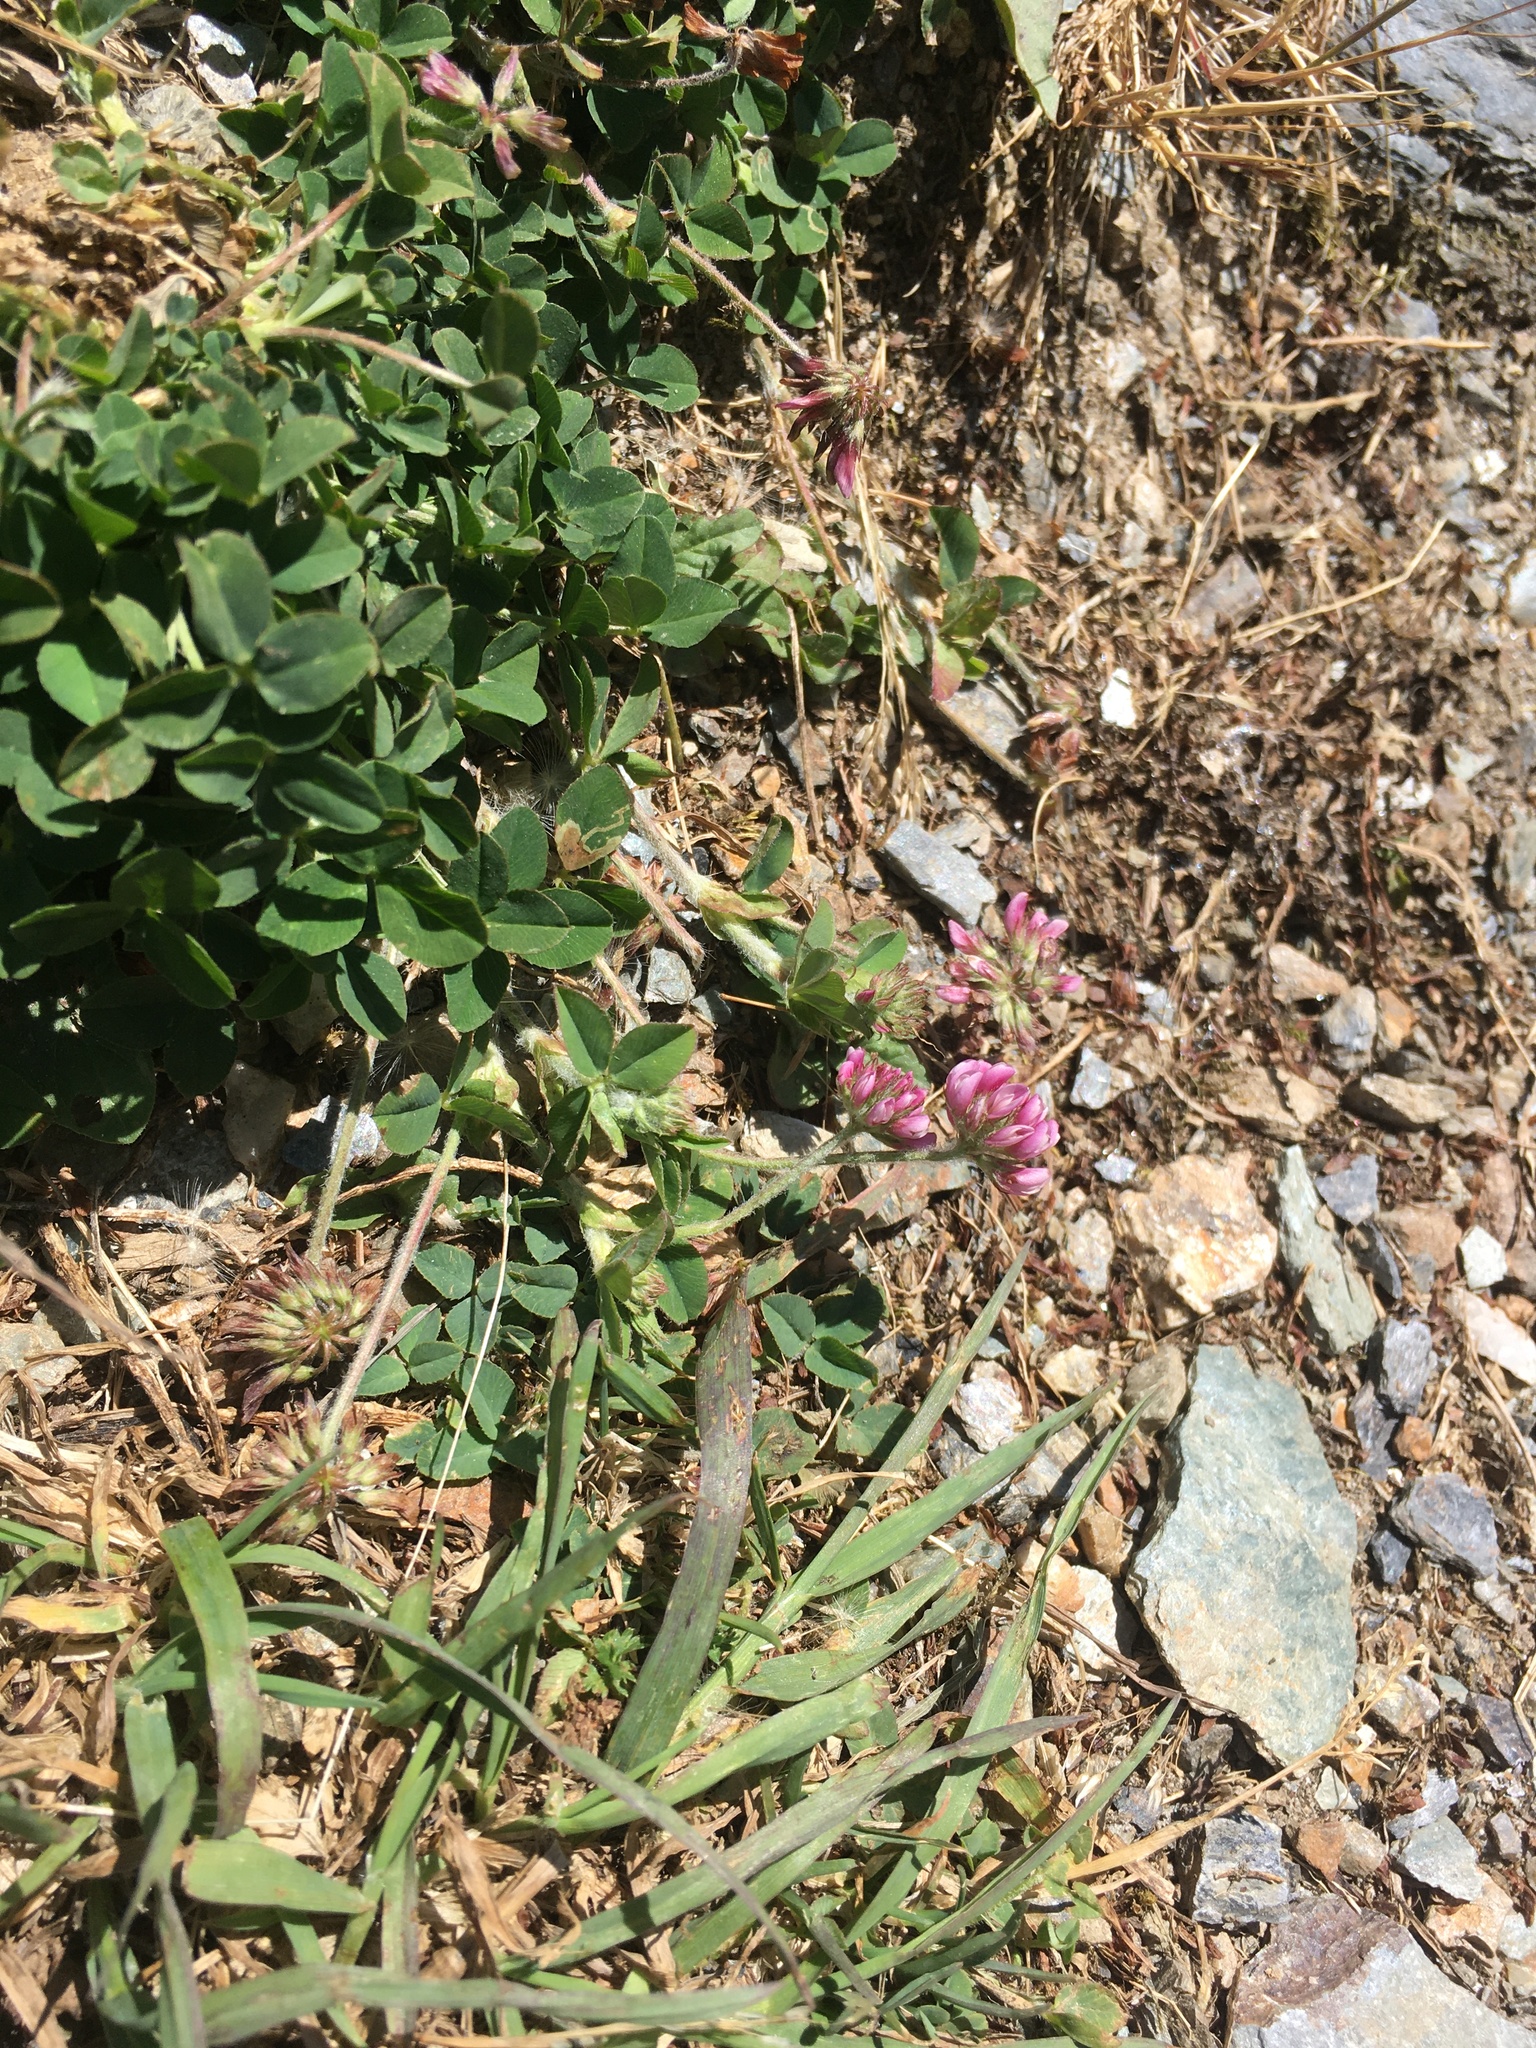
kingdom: Plantae
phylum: Tracheophyta
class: Magnoliopsida
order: Fabales
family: Fabaceae
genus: Trifolium
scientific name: Trifolium amabile
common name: Aztec clover
